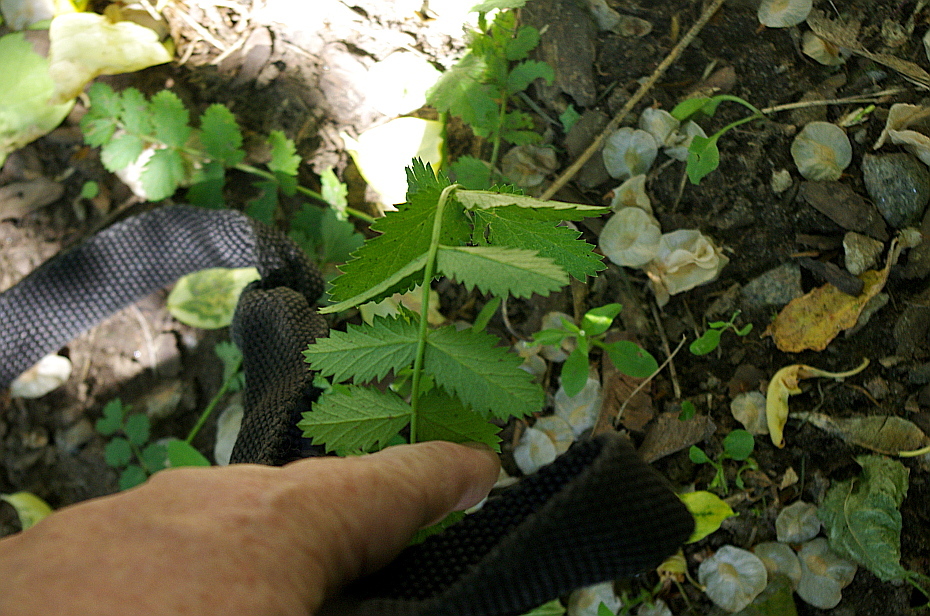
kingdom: Plantae
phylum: Tracheophyta
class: Magnoliopsida
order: Apiales
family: Apiaceae
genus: Pimpinella
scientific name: Pimpinella saxifraga
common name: Burnet-saxifrage
